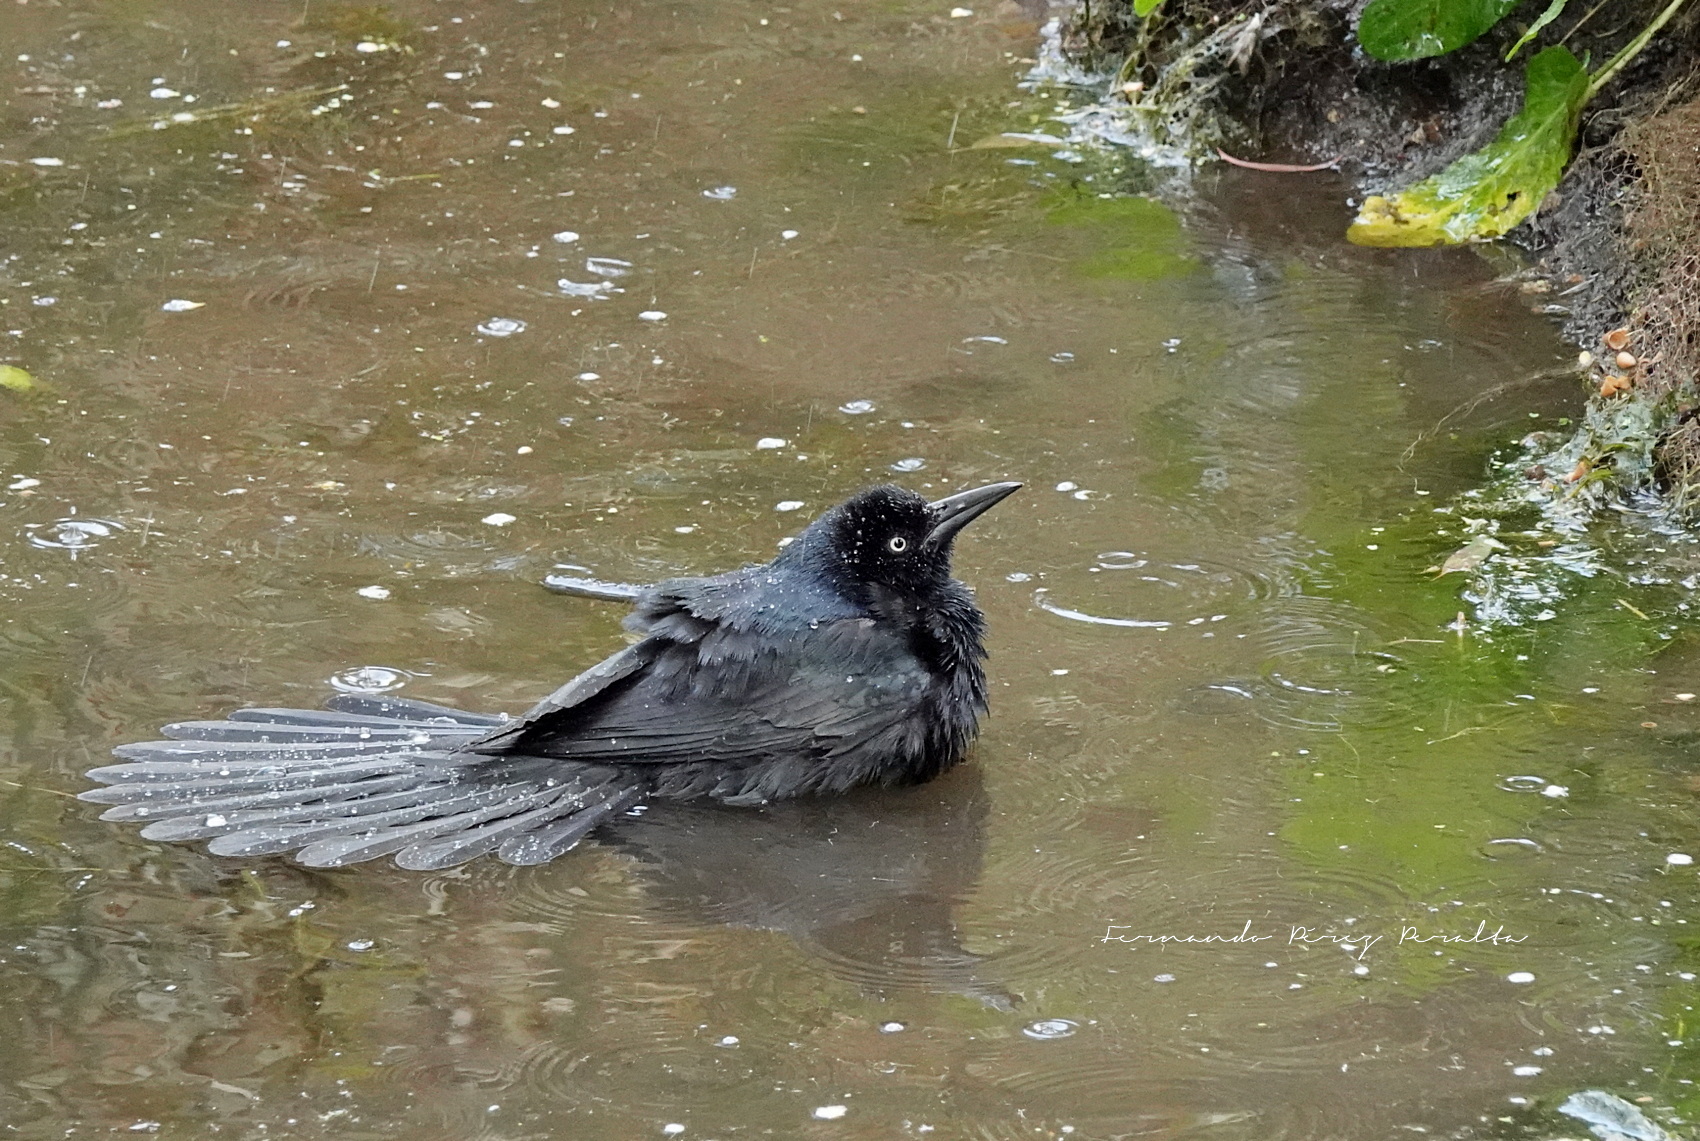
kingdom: Animalia
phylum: Chordata
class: Aves
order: Passeriformes
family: Icteridae
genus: Quiscalus
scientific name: Quiscalus mexicanus
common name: Great-tailed grackle
